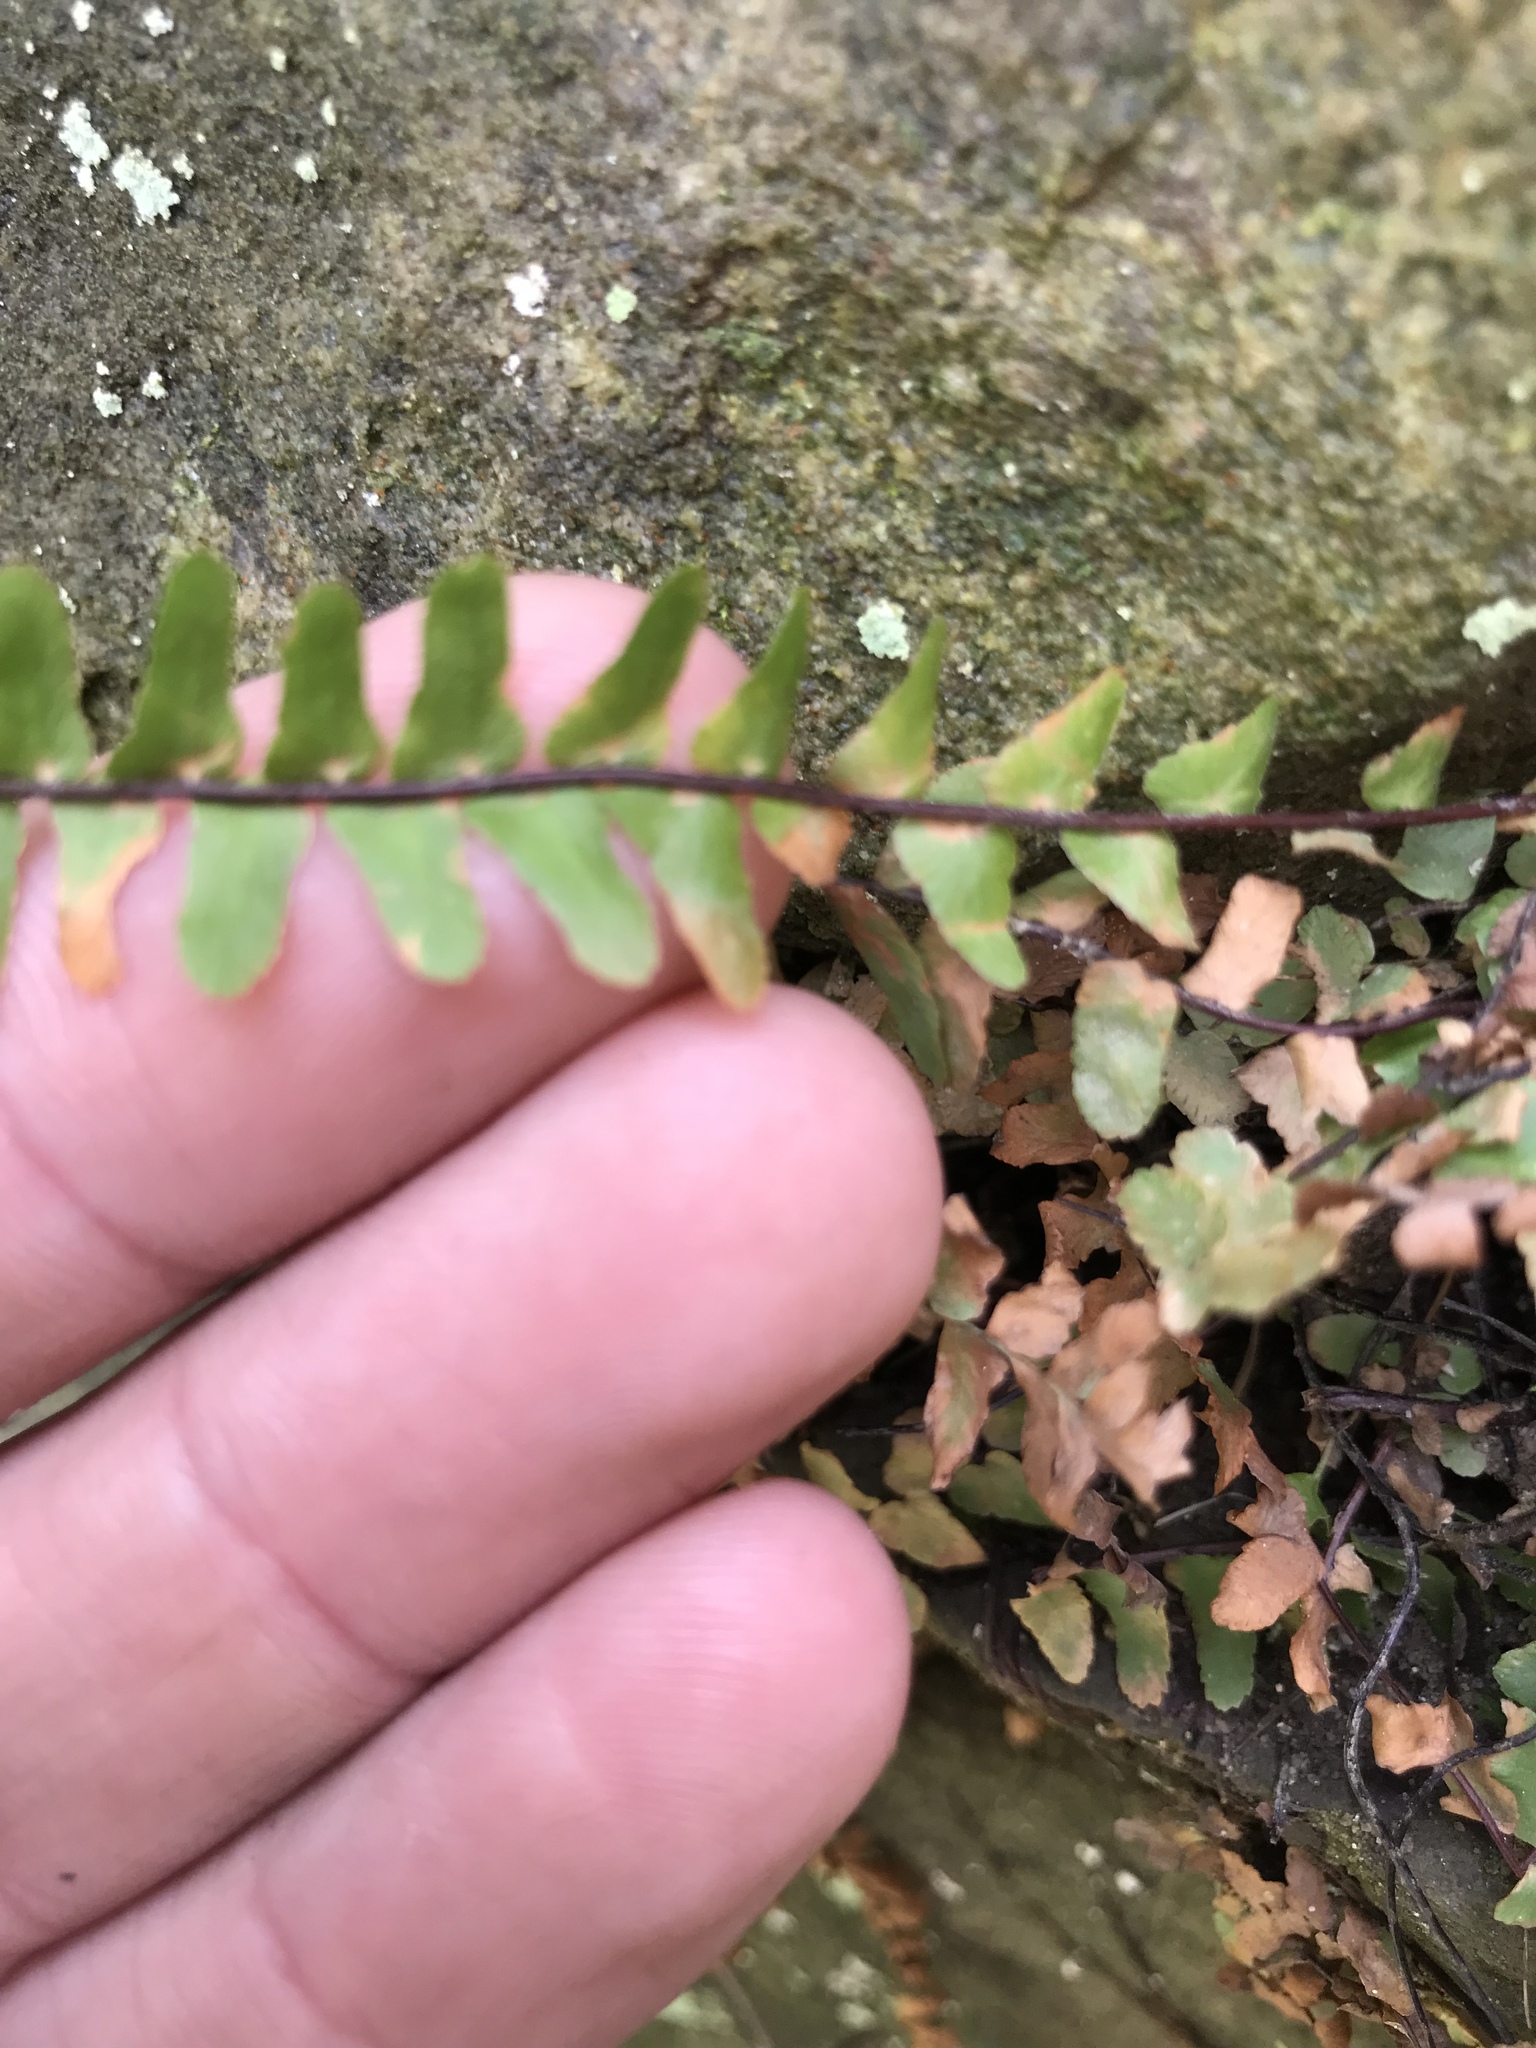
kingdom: Plantae
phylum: Tracheophyta
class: Polypodiopsida
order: Polypodiales
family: Aspleniaceae
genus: Asplenium
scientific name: Asplenium platyneuron
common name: Ebony spleenwort
